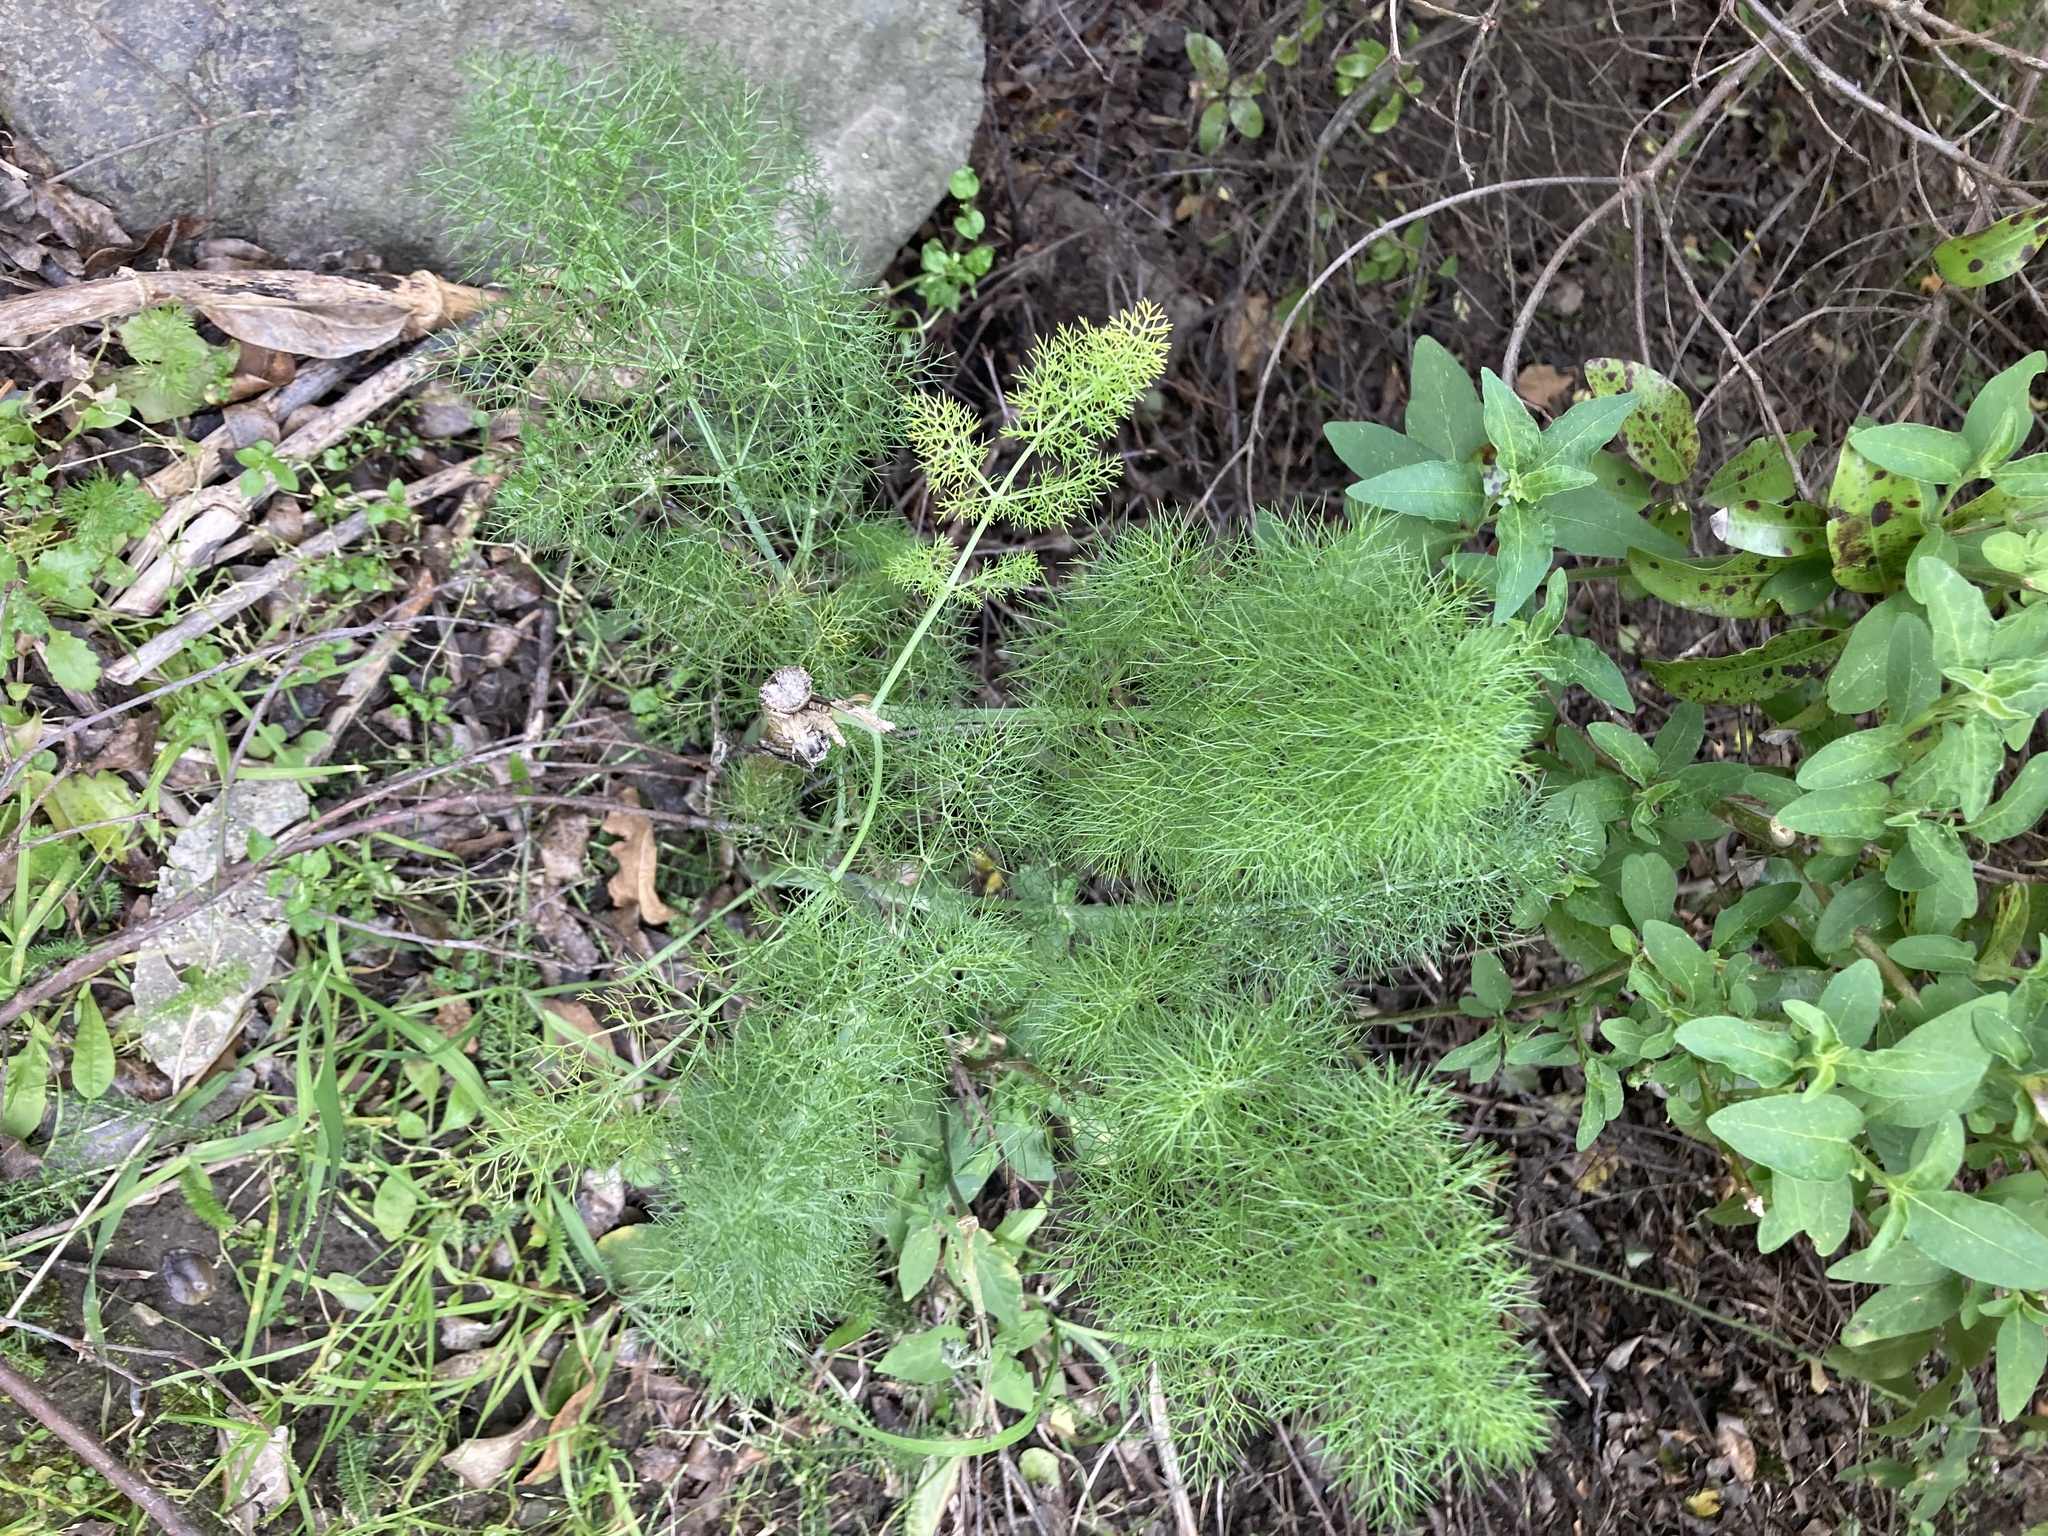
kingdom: Plantae
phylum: Tracheophyta
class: Magnoliopsida
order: Apiales
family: Apiaceae
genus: Foeniculum
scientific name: Foeniculum vulgare
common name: Fennel
